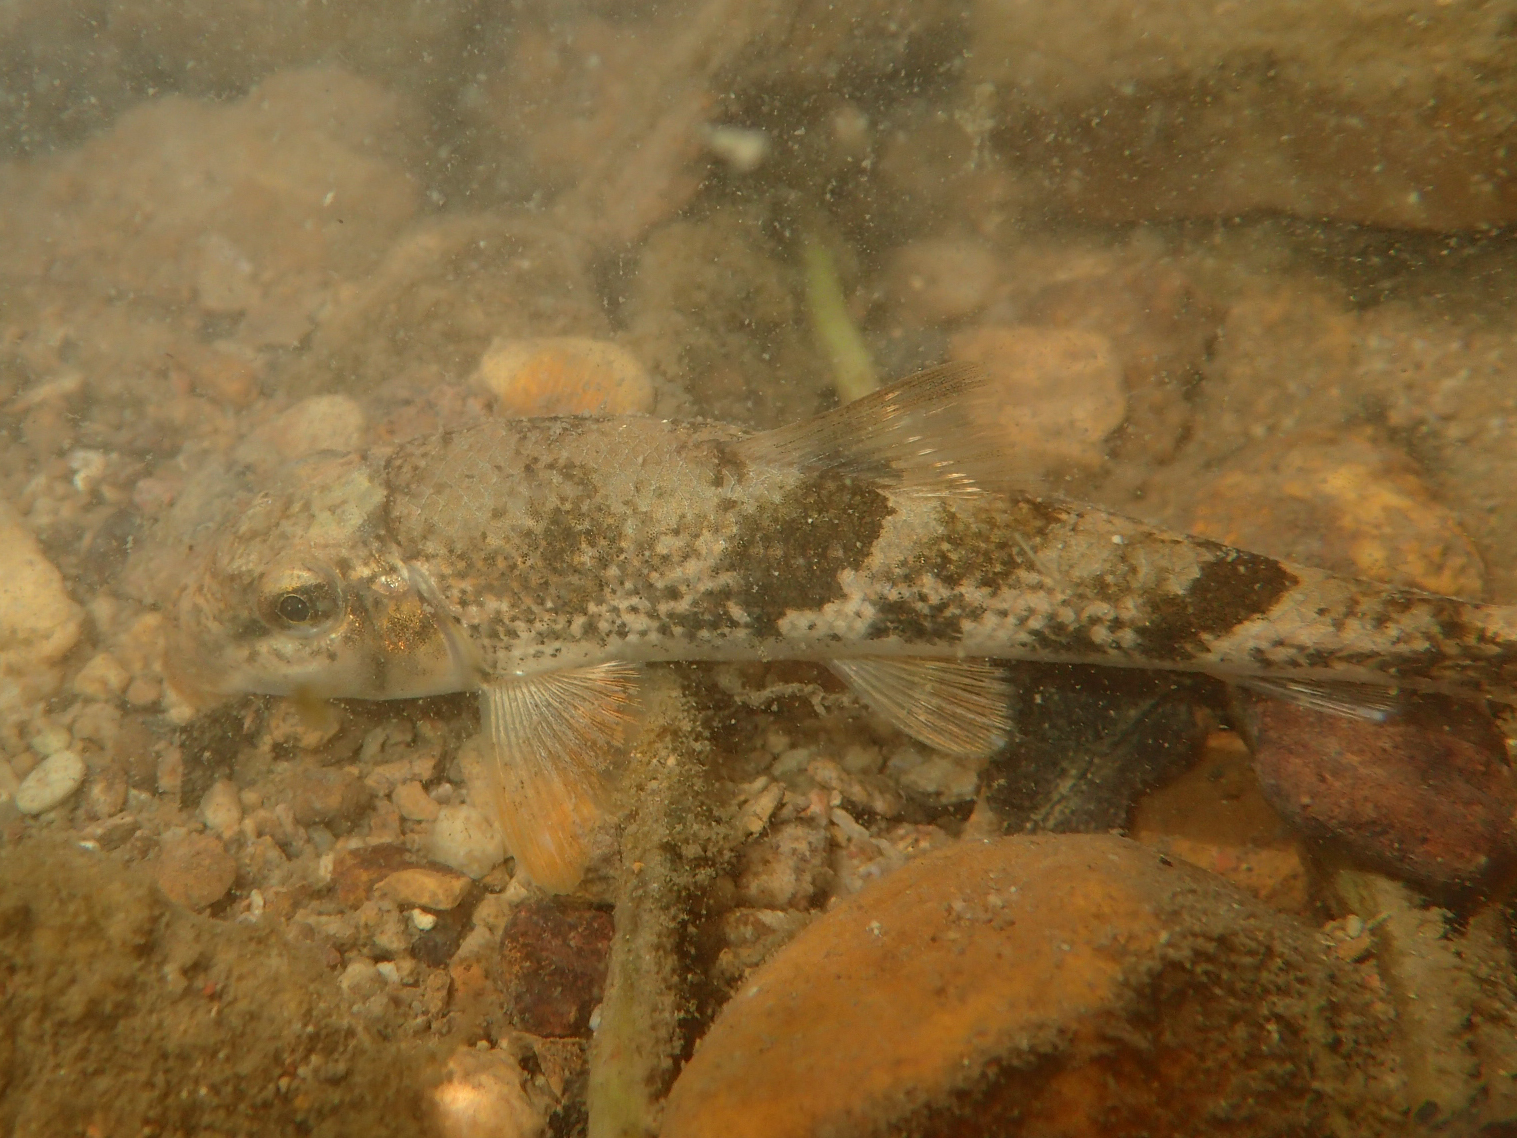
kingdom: Animalia
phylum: Chordata
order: Cypriniformes
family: Catostomidae
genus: Hypentelium
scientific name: Hypentelium nigricans
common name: Northern hog sucker
